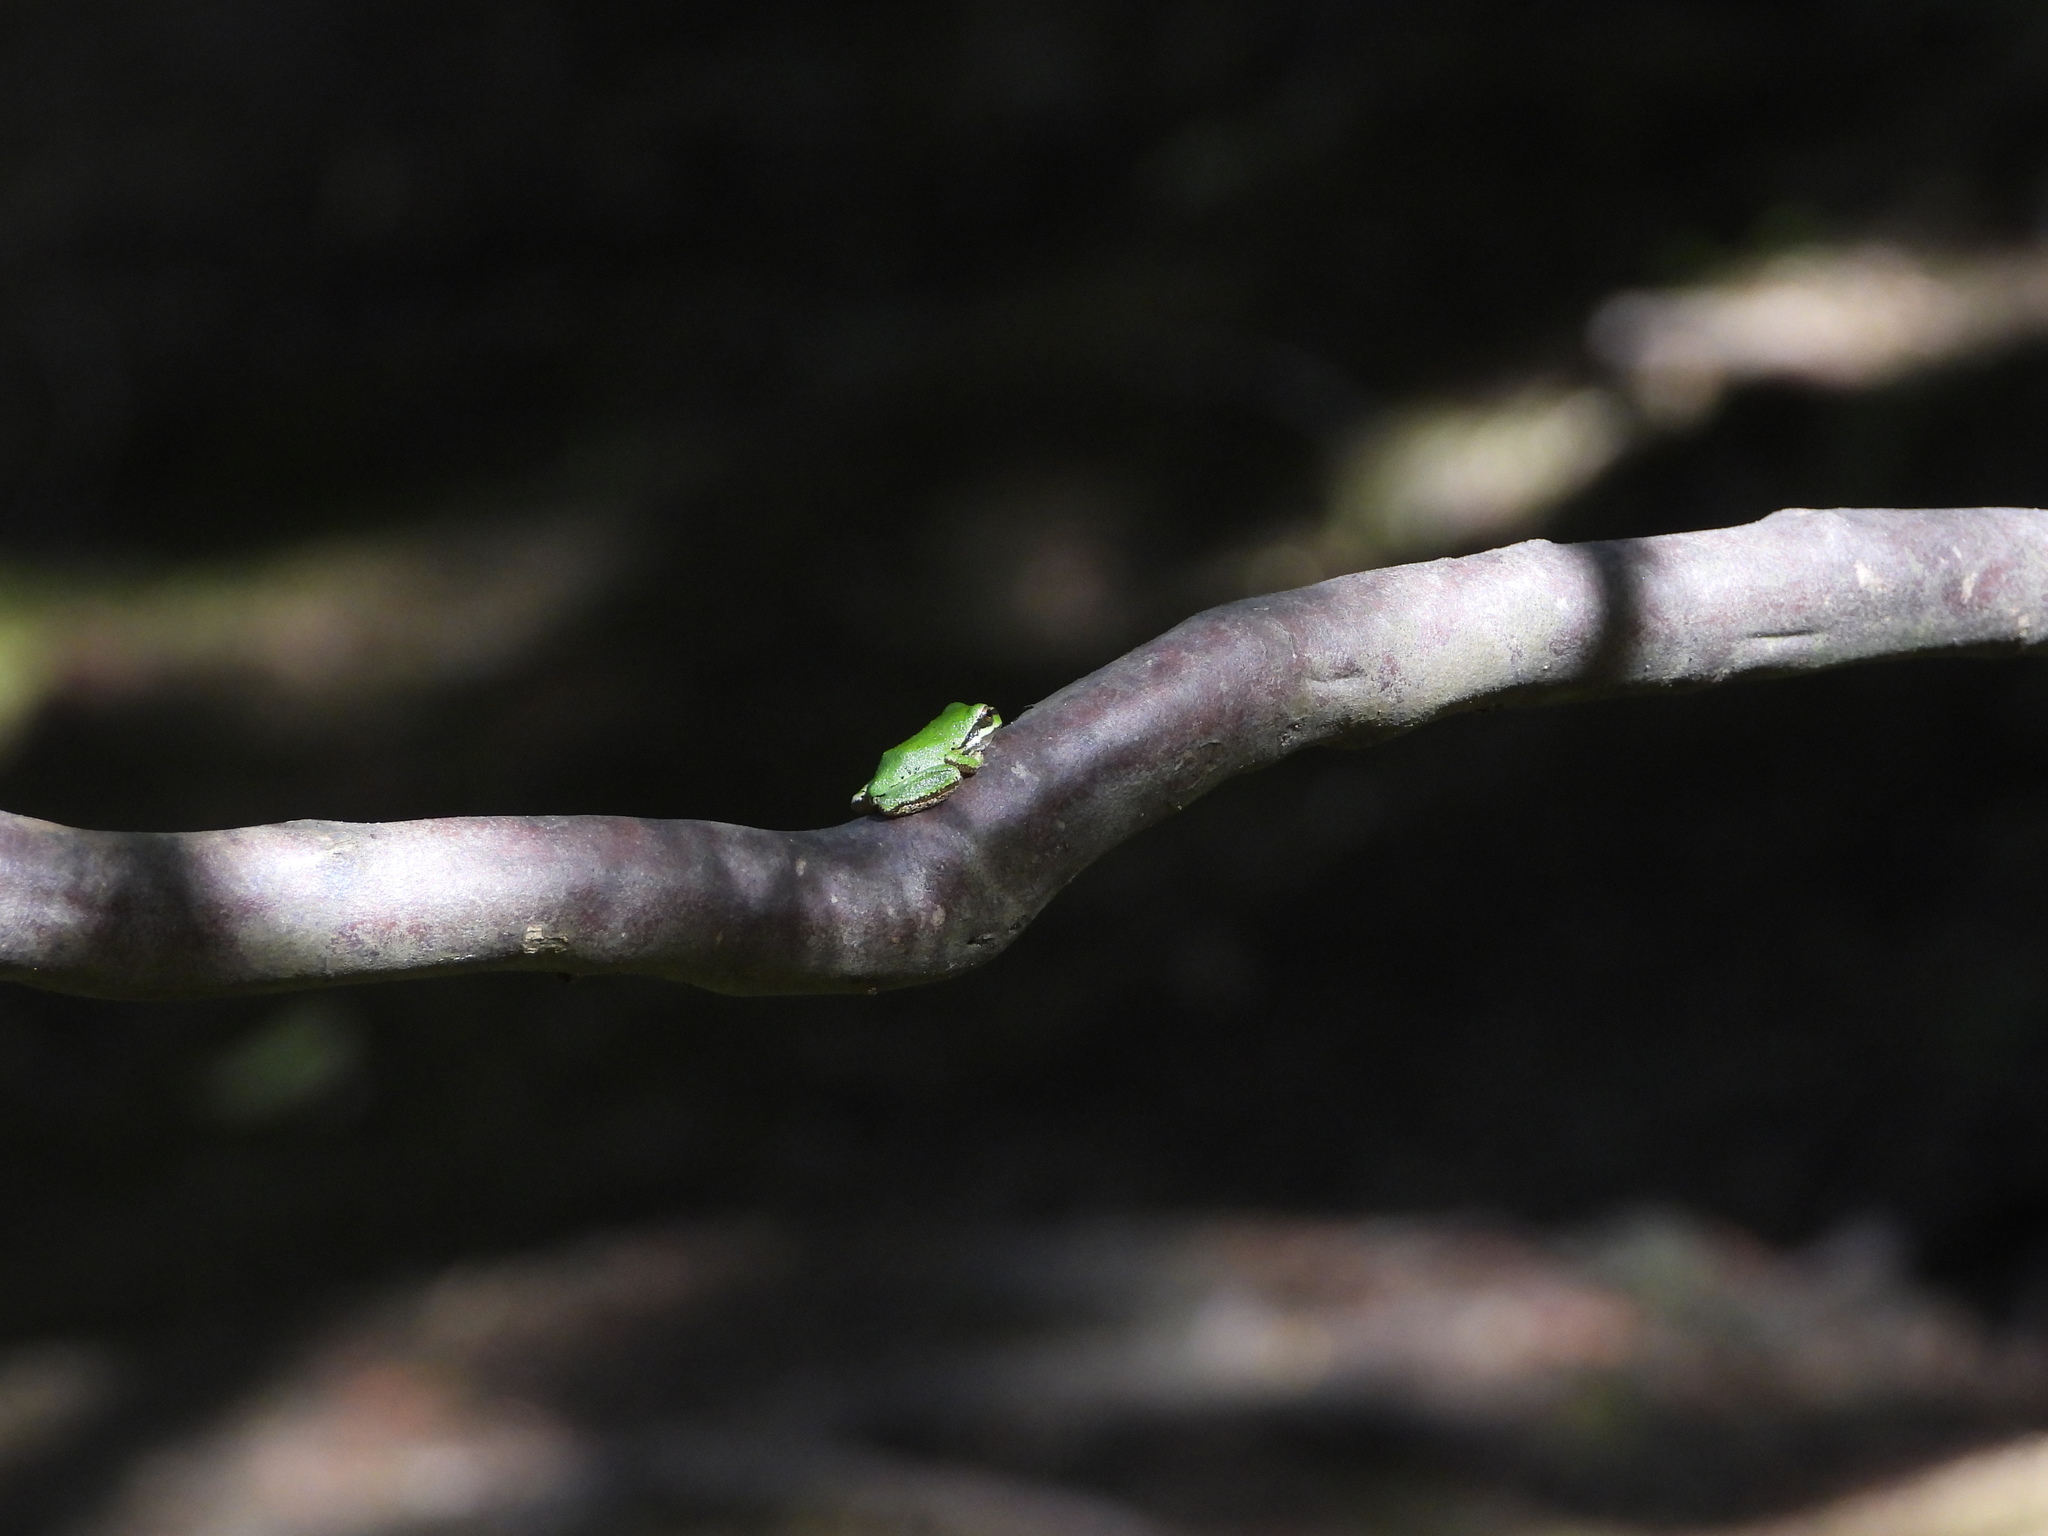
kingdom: Animalia
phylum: Chordata
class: Amphibia
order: Anura
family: Hylidae
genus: Pseudacris
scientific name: Pseudacris regilla
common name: Pacific chorus frog
